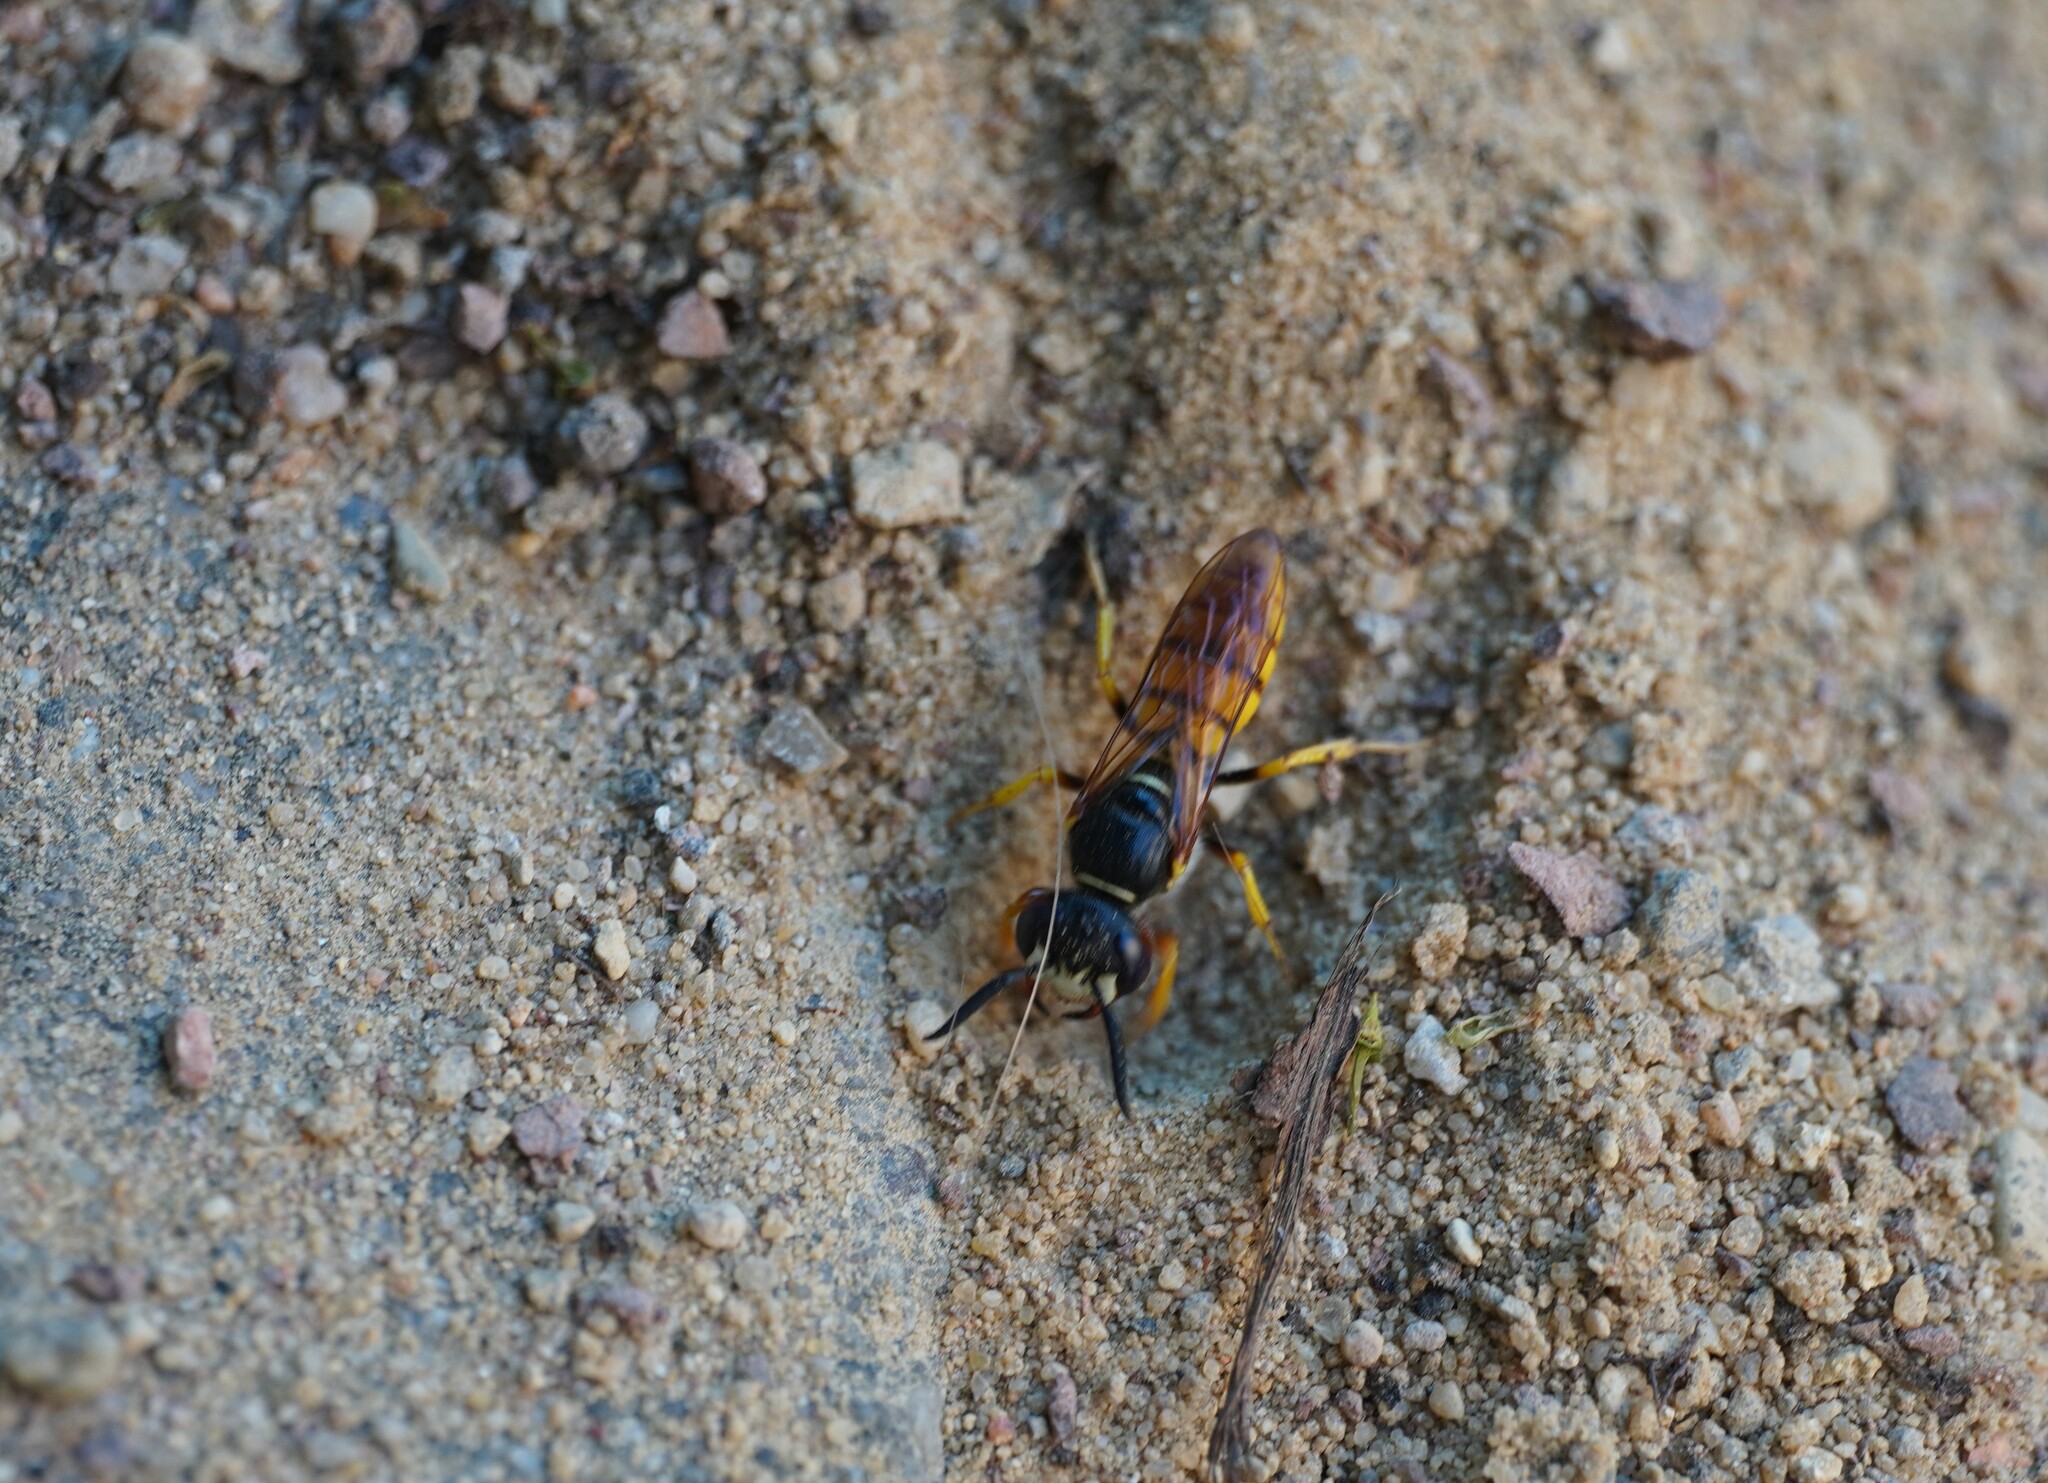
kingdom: Animalia
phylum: Arthropoda
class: Insecta
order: Hymenoptera
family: Crabronidae
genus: Philanthus
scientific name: Philanthus triangulum
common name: Bee wolf
